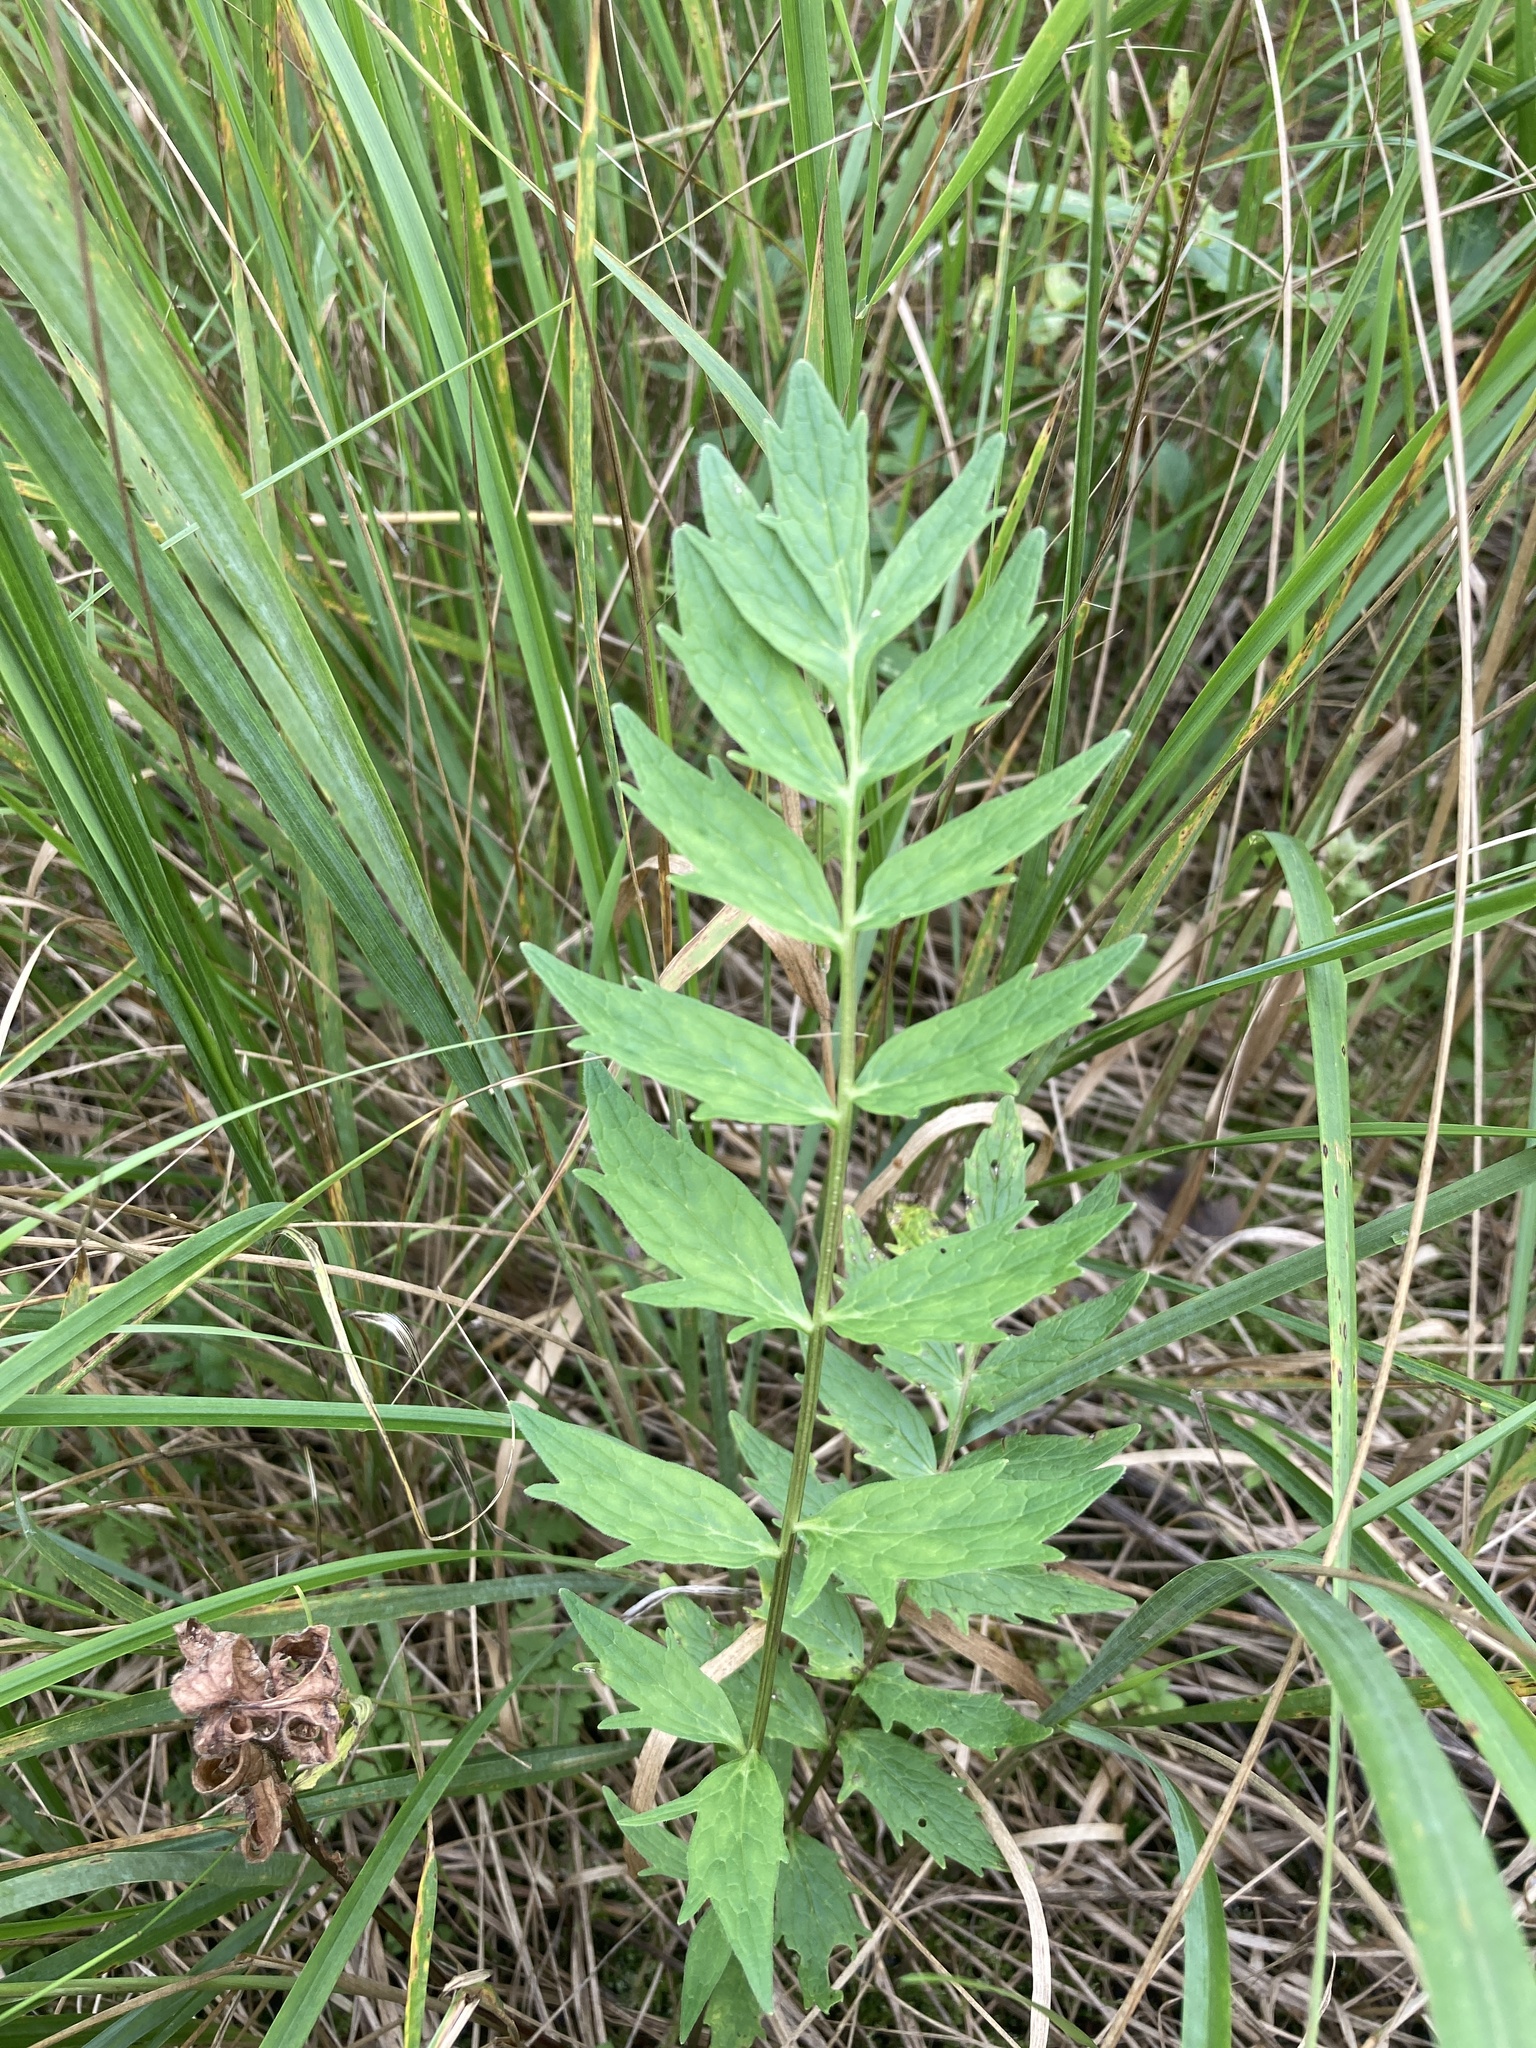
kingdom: Plantae
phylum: Tracheophyta
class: Magnoliopsida
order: Dipsacales
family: Caprifoliaceae
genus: Valeriana
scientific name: Valeriana officinalis
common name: Common valerian
